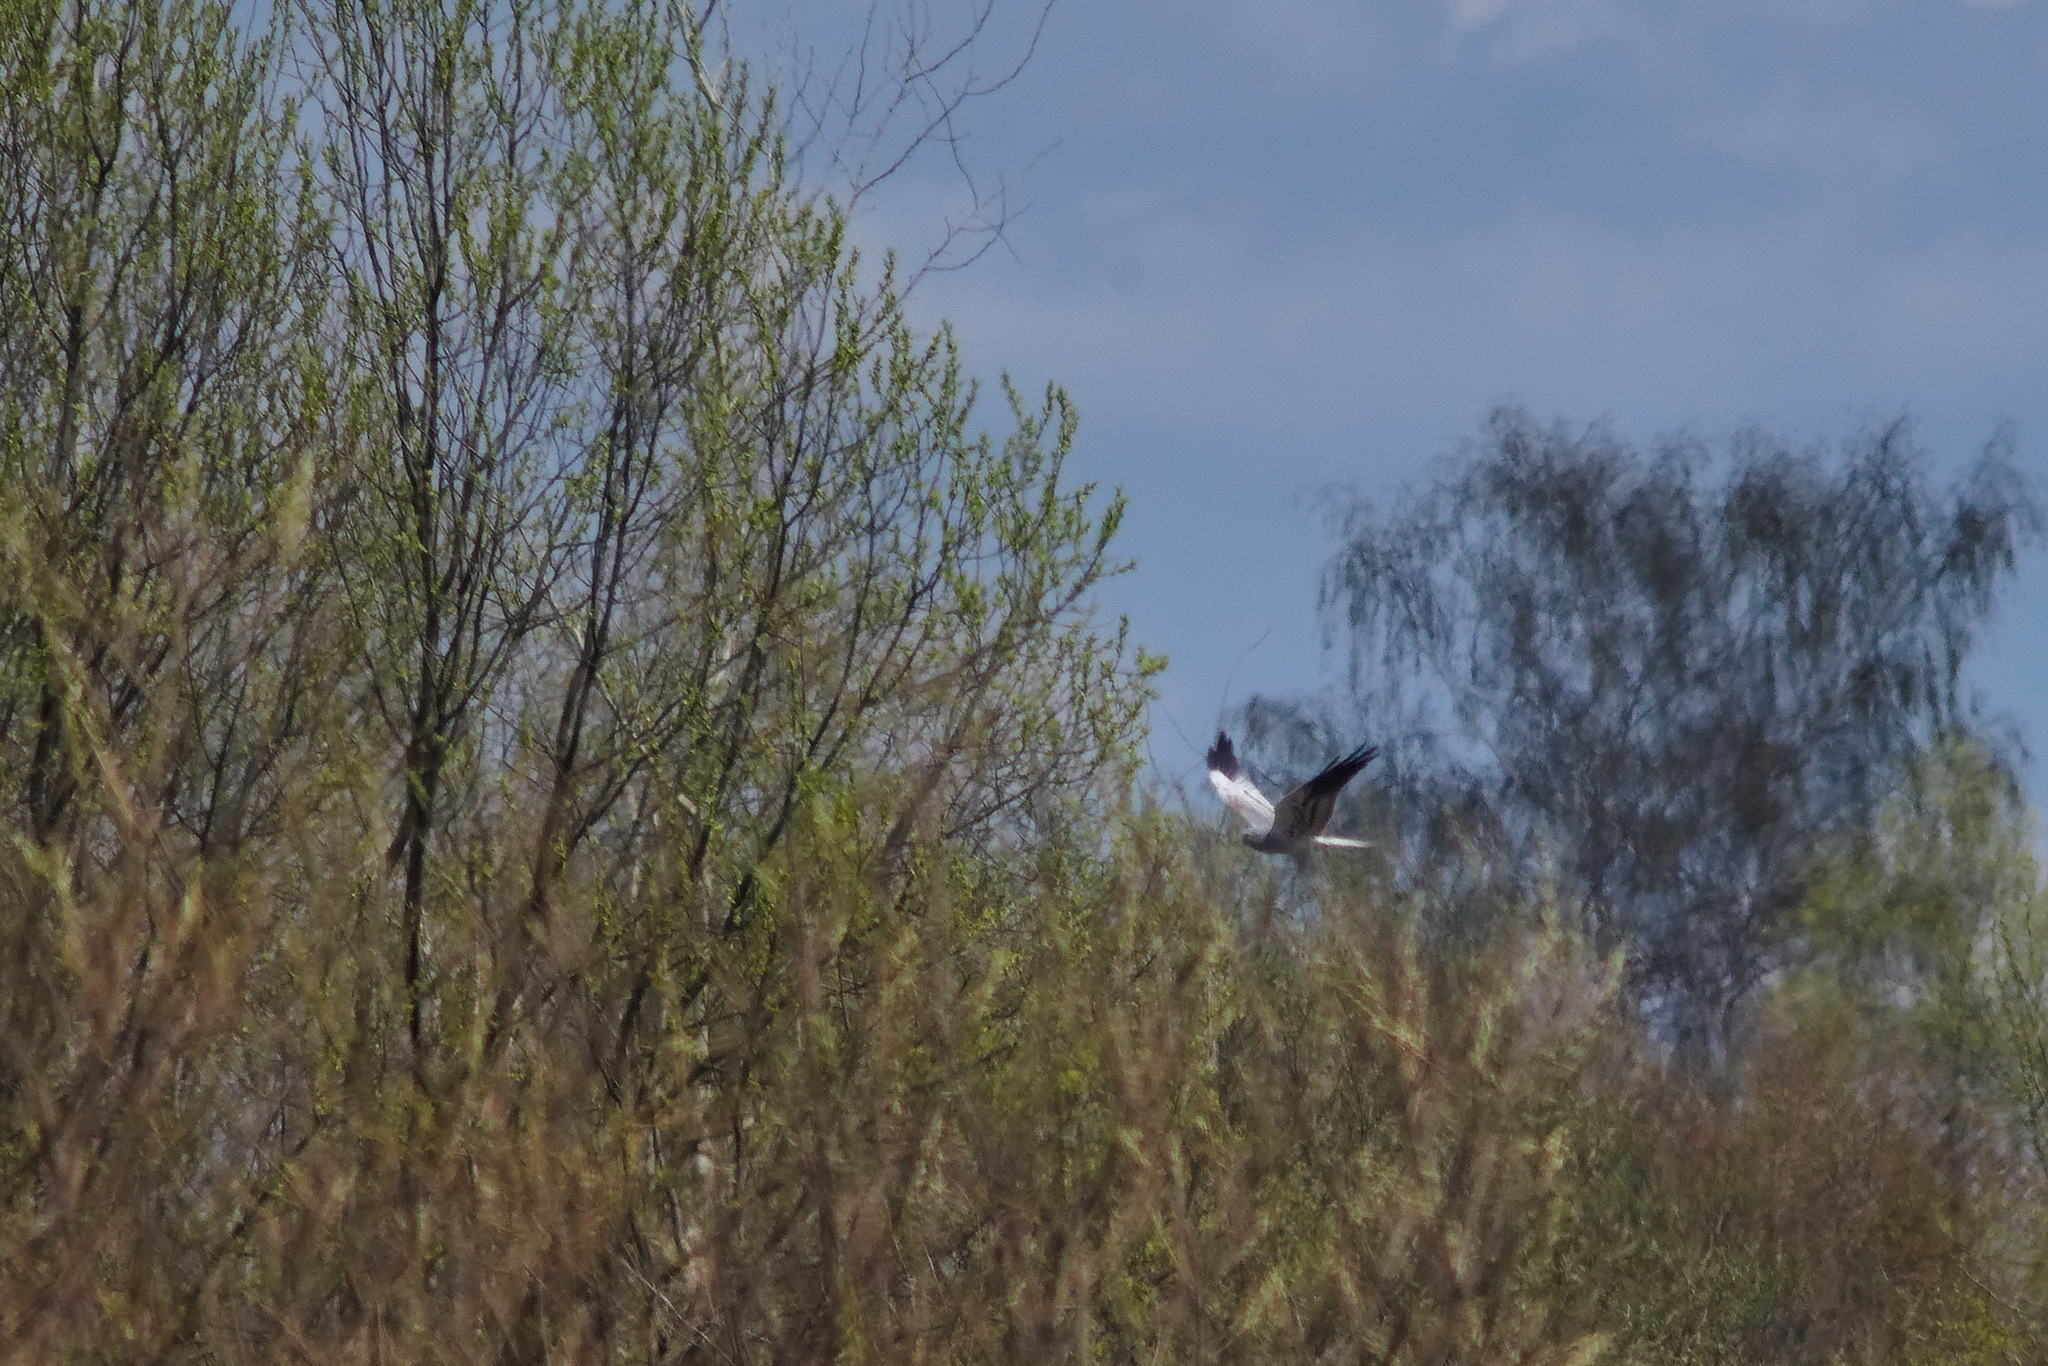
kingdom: Animalia
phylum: Chordata
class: Aves
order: Accipitriformes
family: Accipitridae
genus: Circus
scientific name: Circus pygargus
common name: Montagu's harrier
